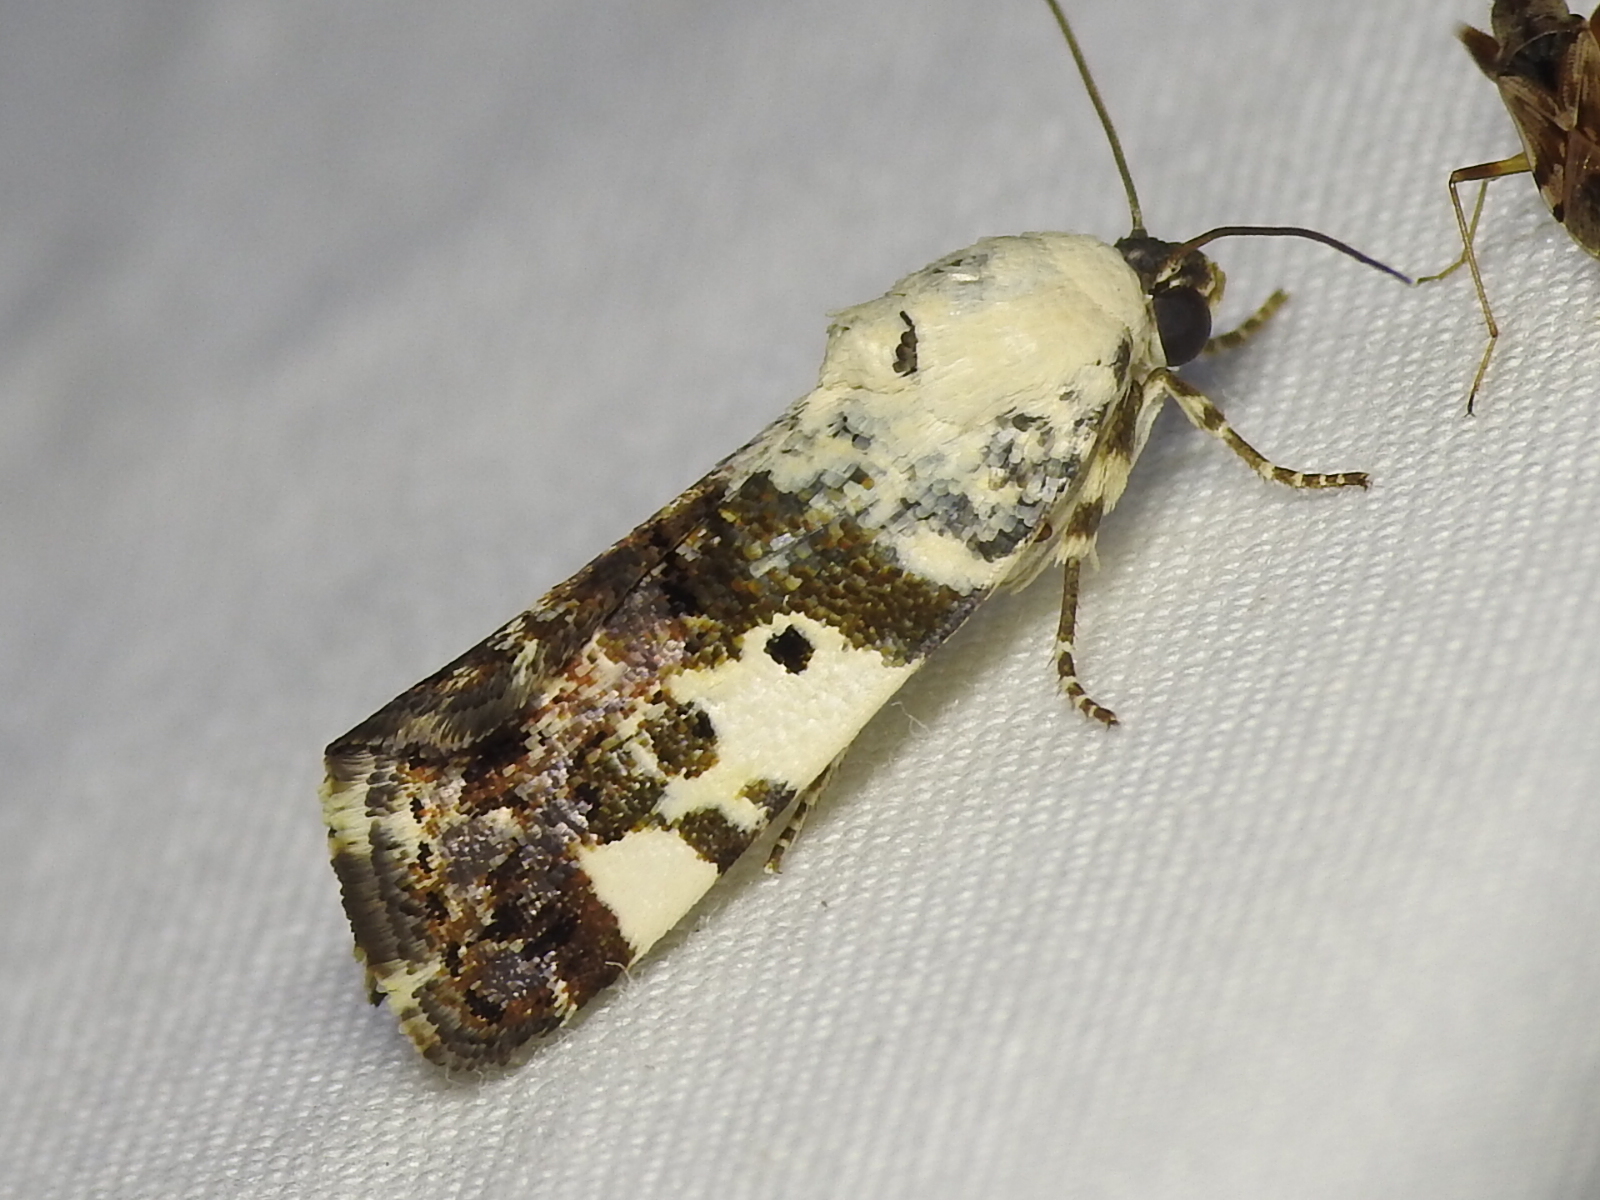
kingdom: Animalia
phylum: Arthropoda
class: Insecta
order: Lepidoptera
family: Noctuidae
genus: Acontia
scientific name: Acontia aprica
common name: Nun
